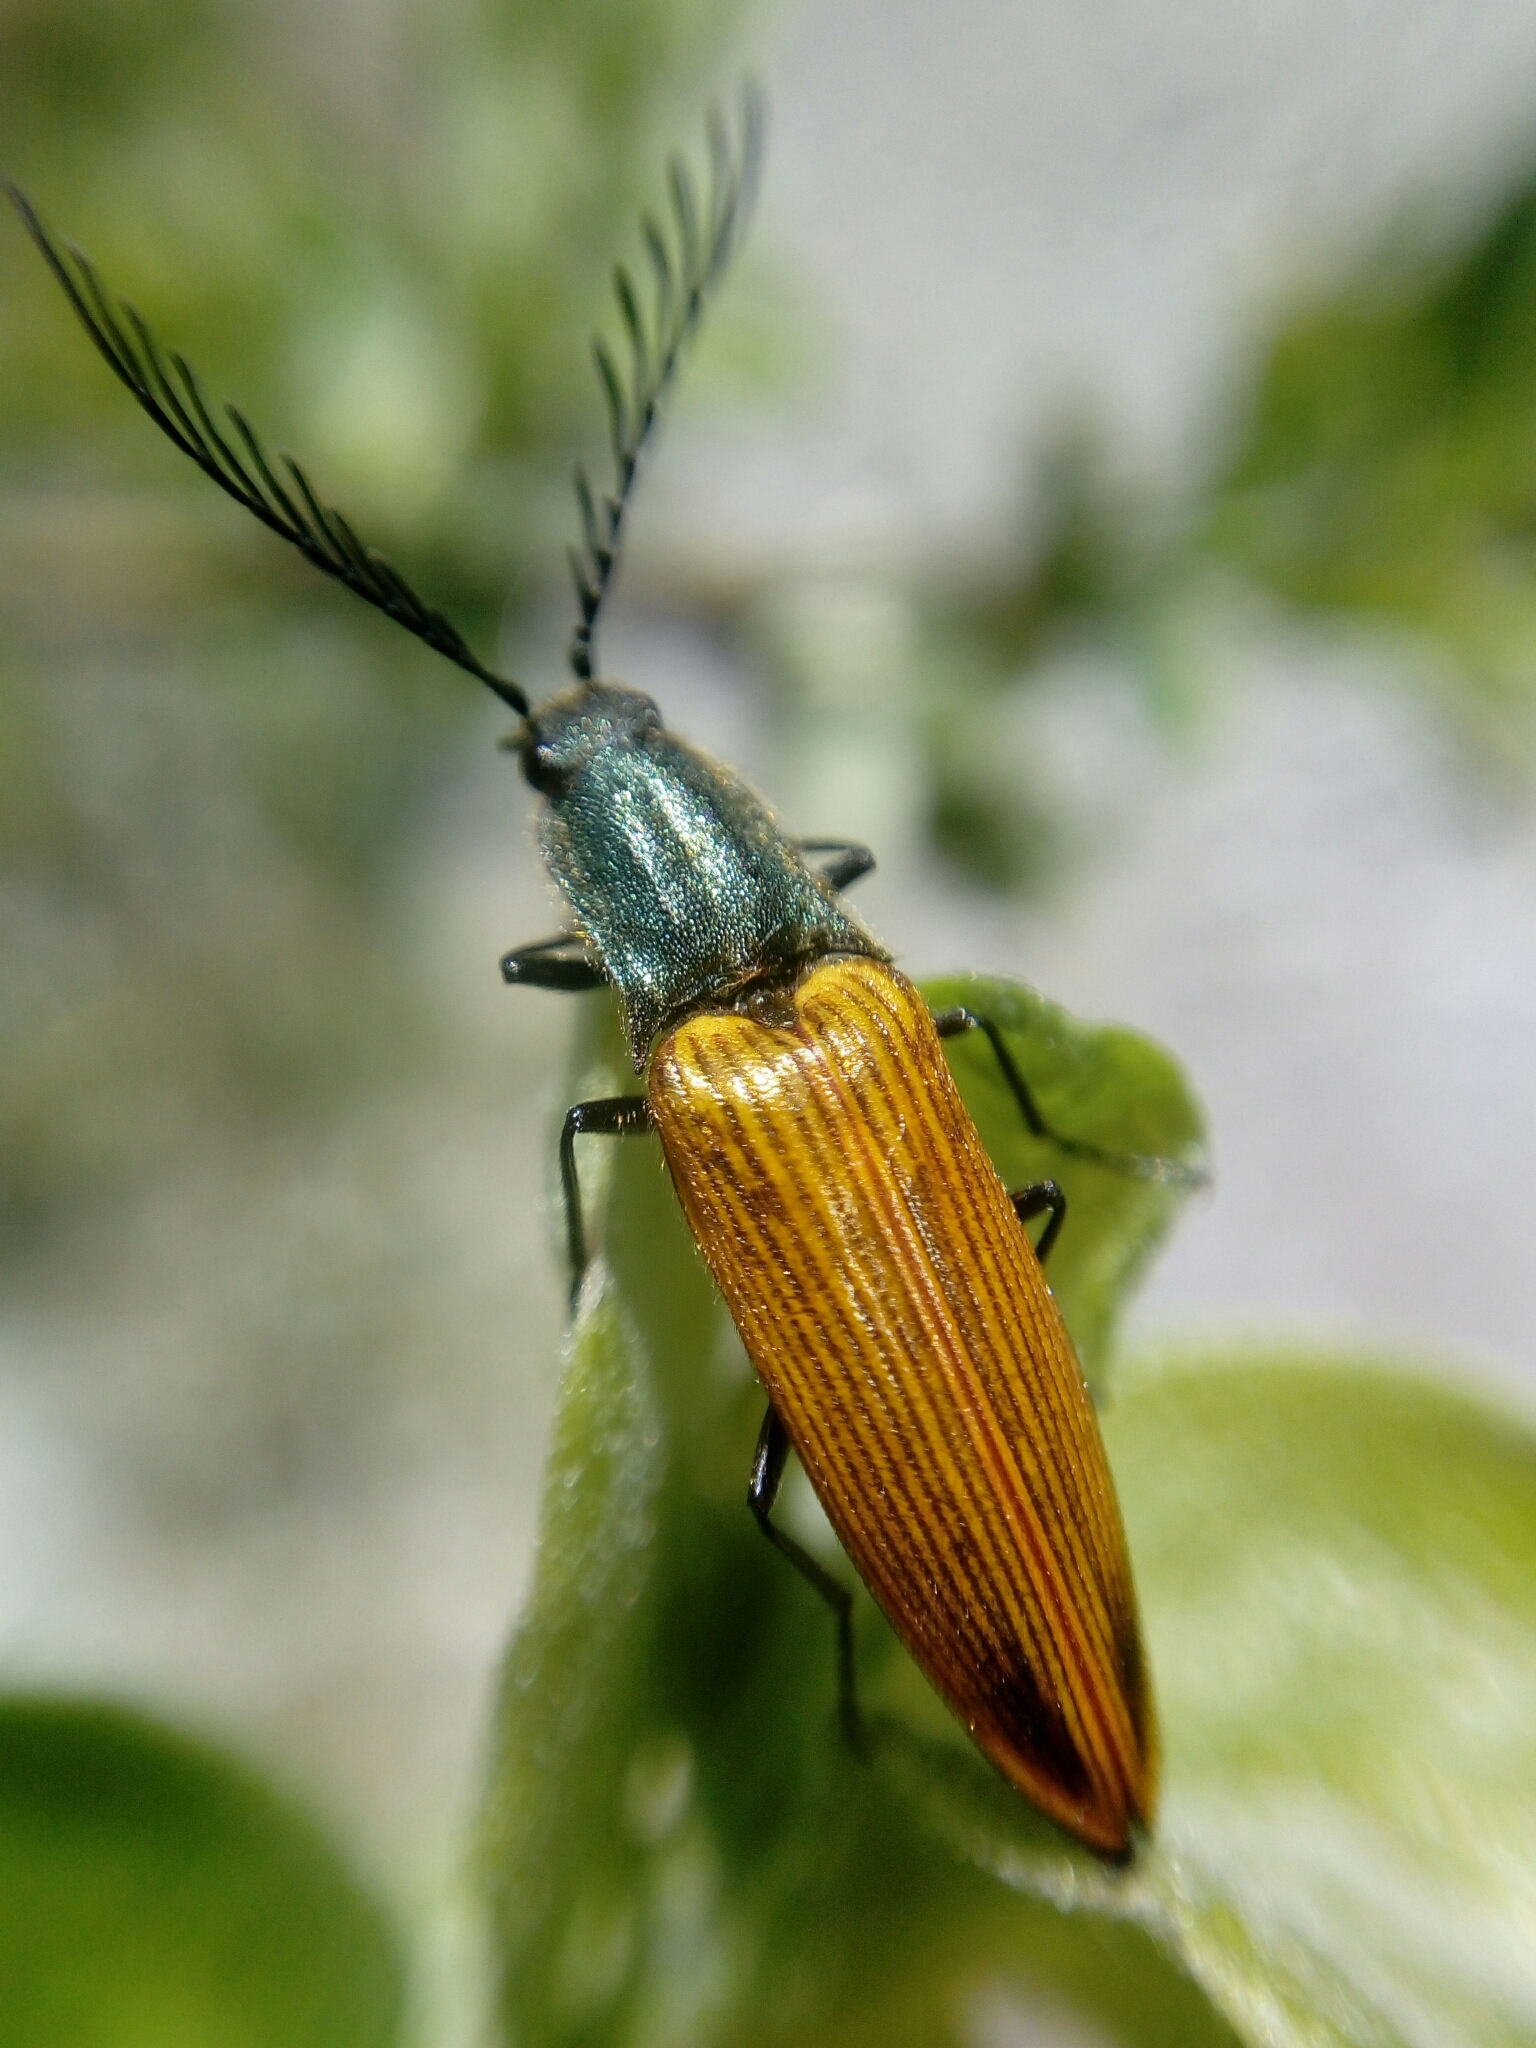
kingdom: Animalia
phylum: Arthropoda
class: Insecta
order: Coleoptera
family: Elateridae
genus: Ctenicera
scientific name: Ctenicera virens
